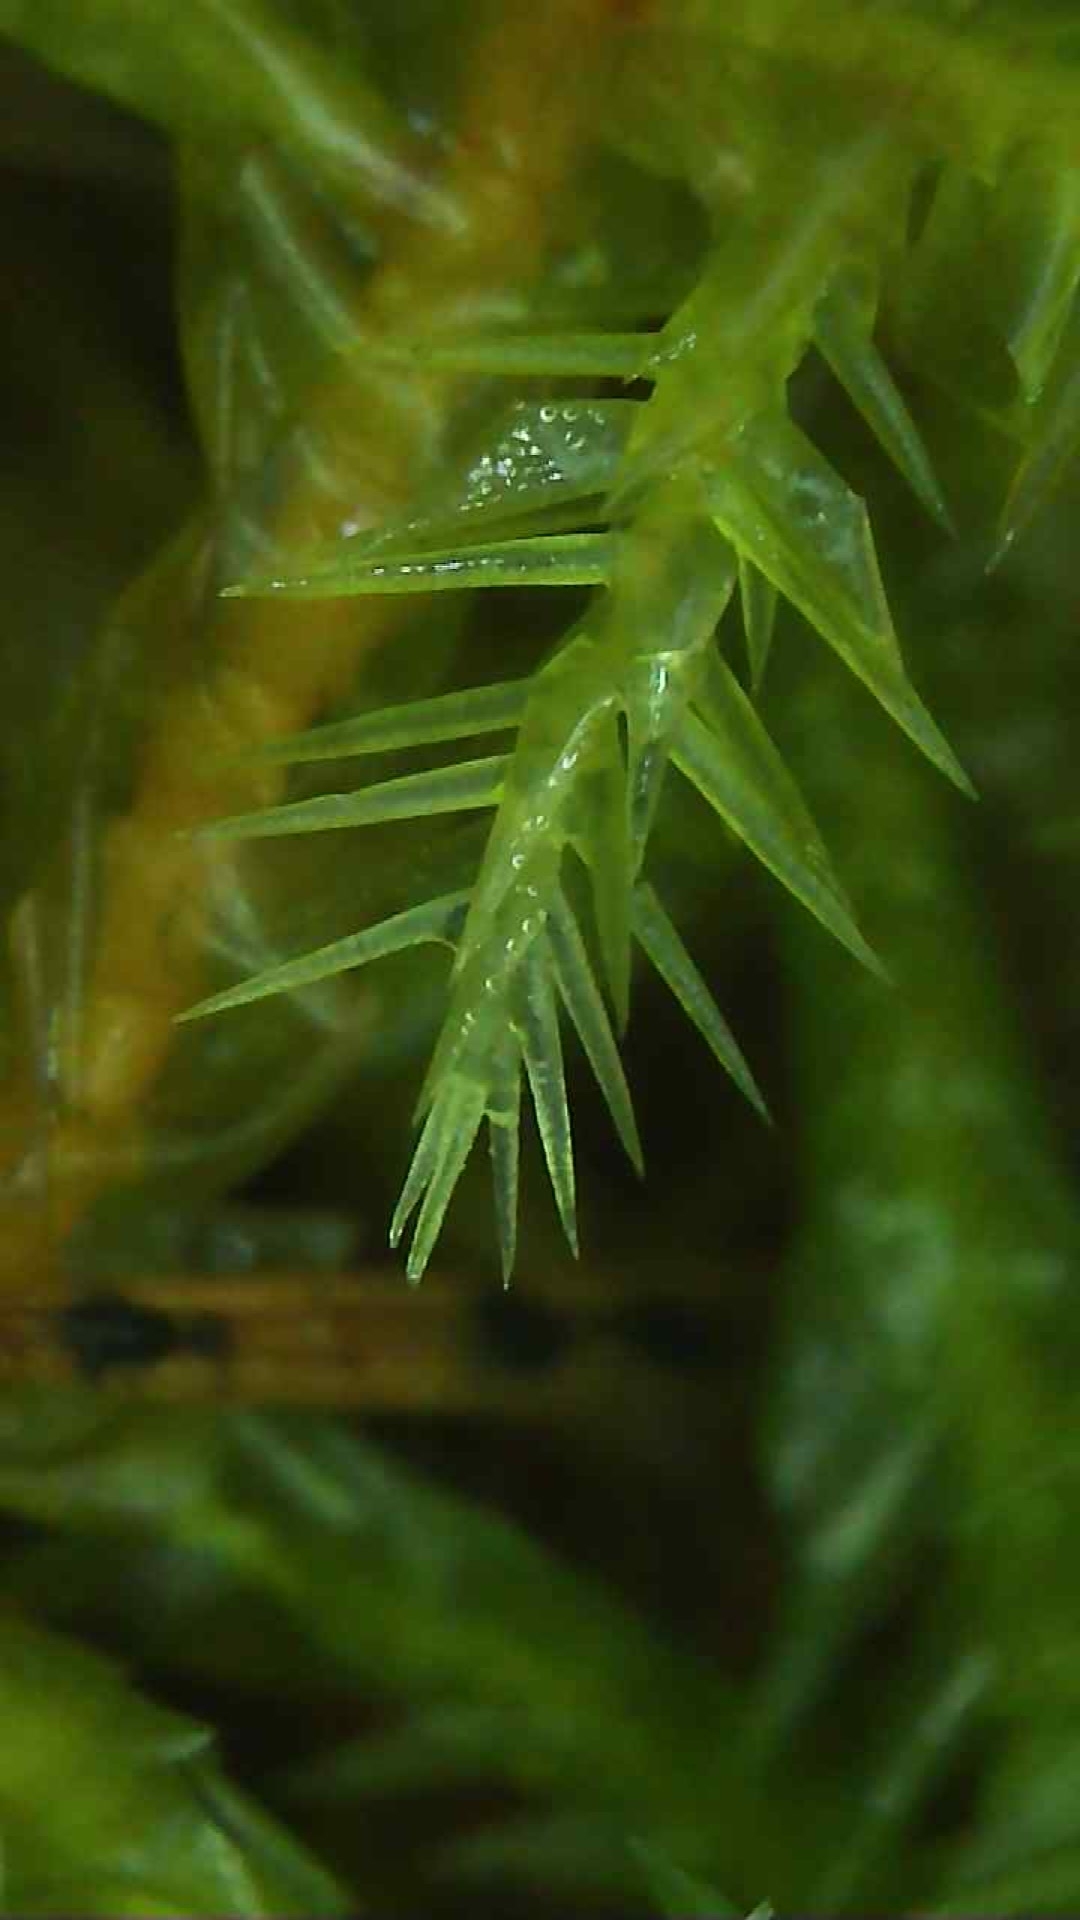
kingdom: Plantae
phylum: Bryophyta
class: Bryopsida
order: Hypnales
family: Pylaisiaceae
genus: Calliergonella
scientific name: Calliergonella cuspidata
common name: Common large wetland moss
